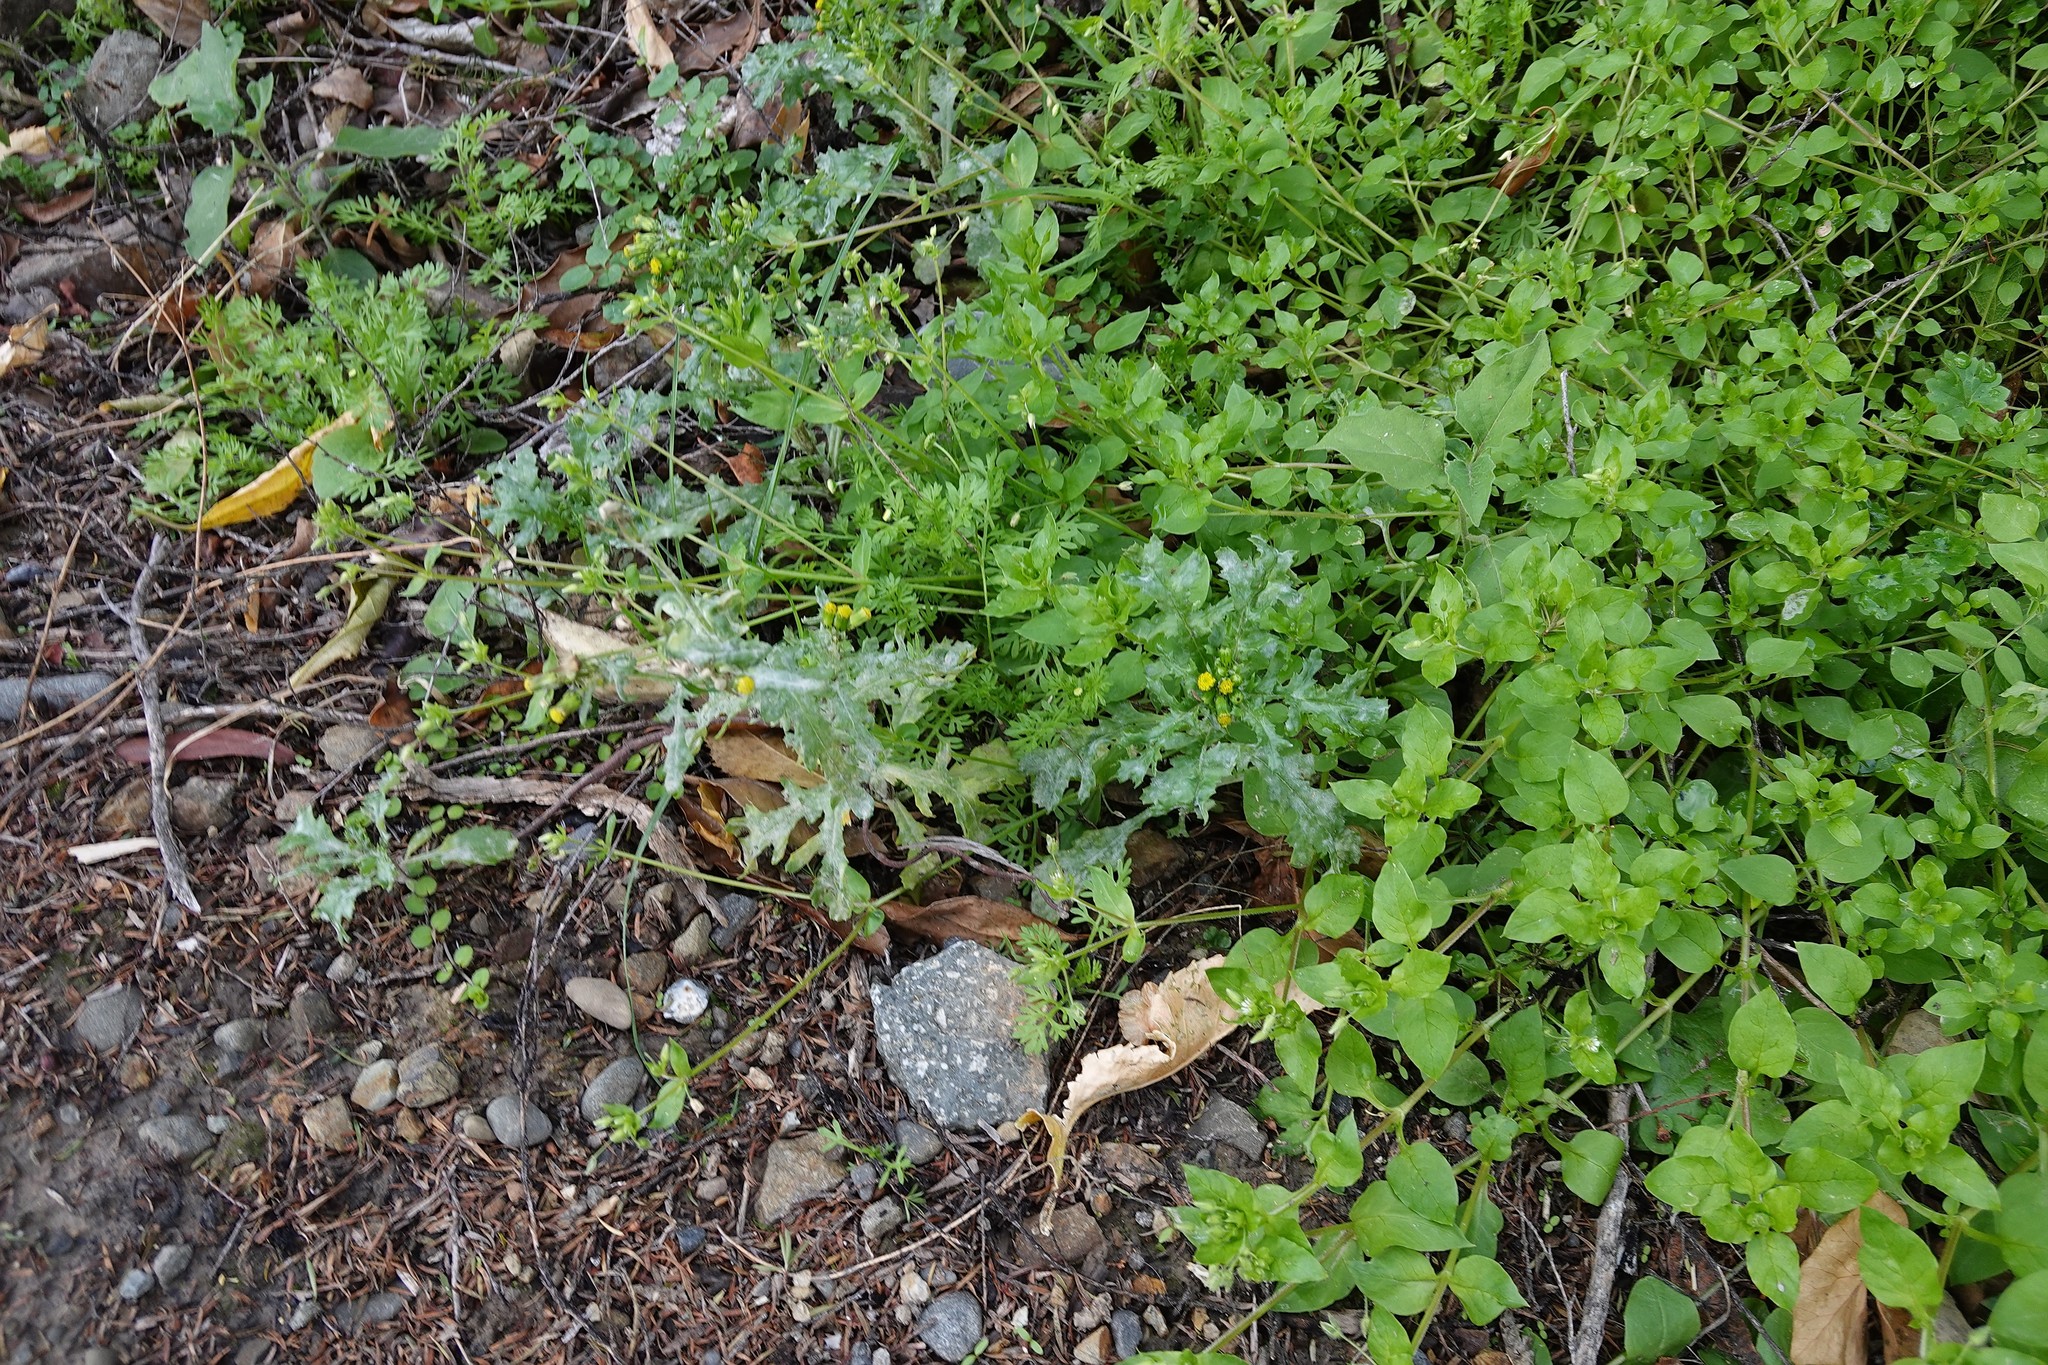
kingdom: Plantae
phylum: Tracheophyta
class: Magnoliopsida
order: Caryophyllales
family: Caryophyllaceae
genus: Stellaria
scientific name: Stellaria media
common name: Common chickweed
